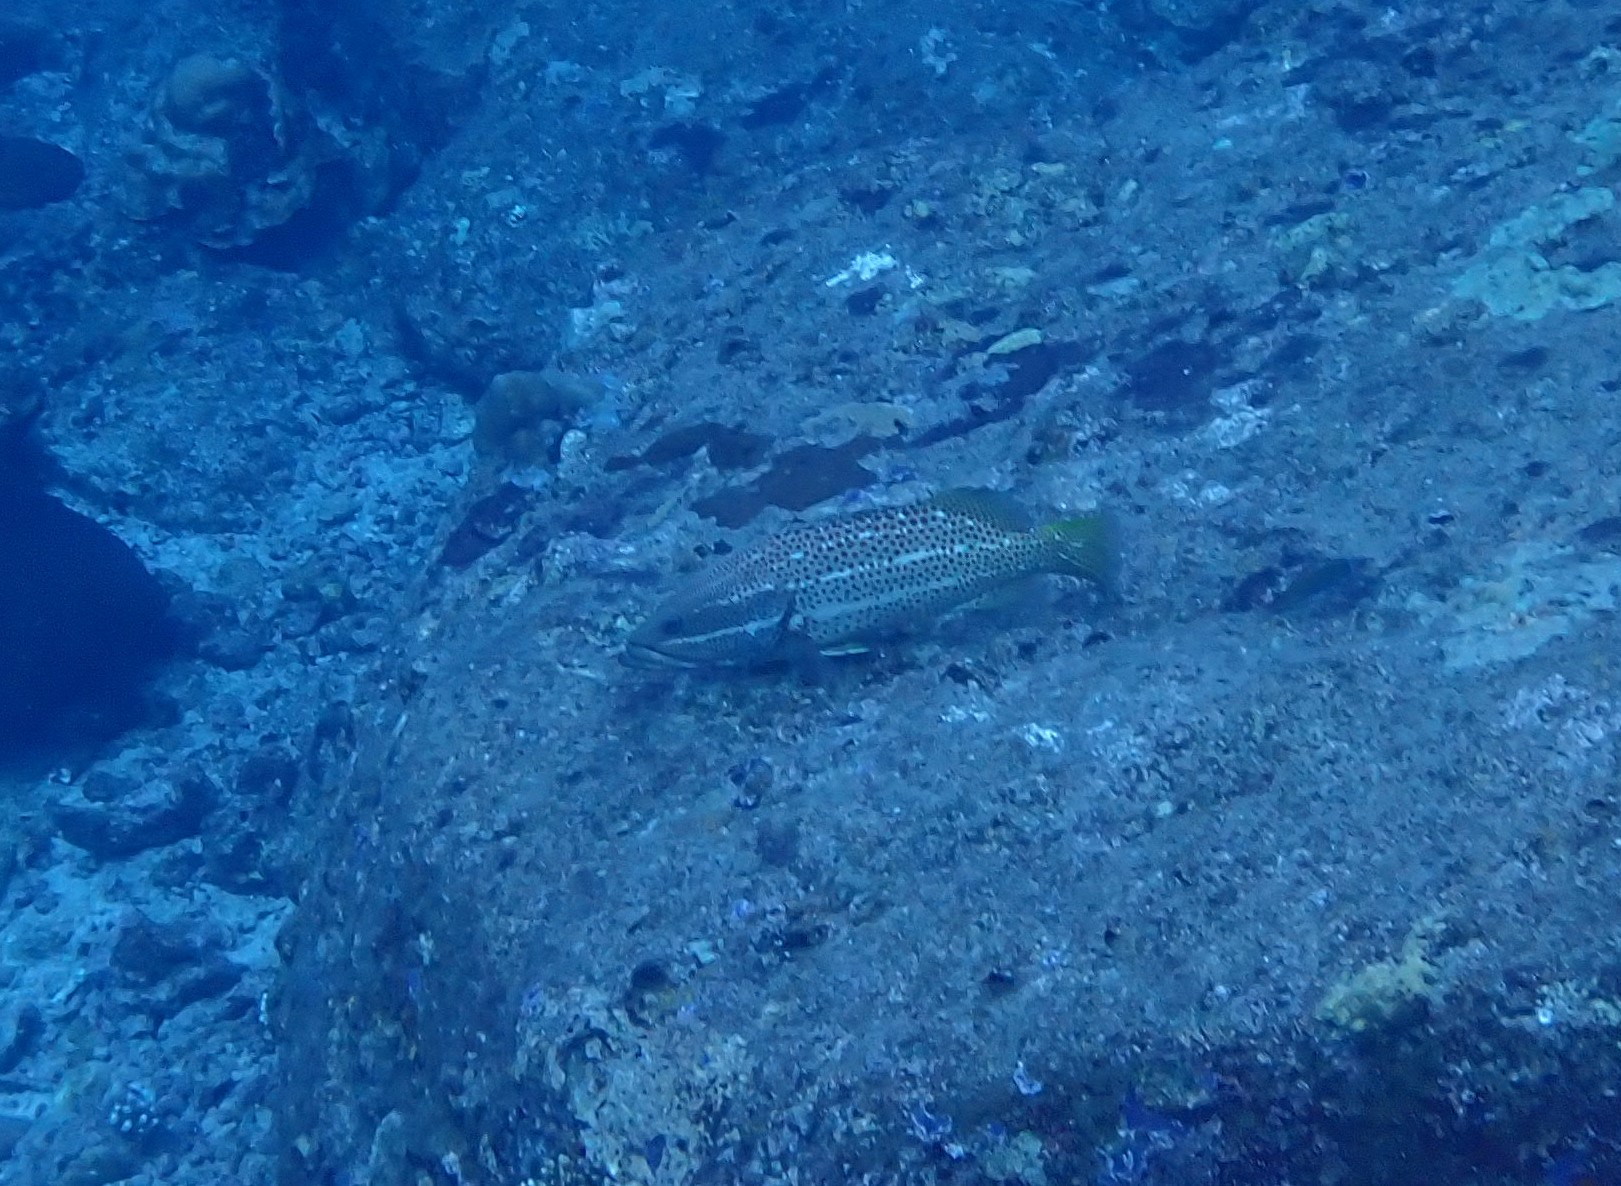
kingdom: Animalia
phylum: Chordata
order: Perciformes
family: Serranidae
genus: Anyperodon
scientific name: Anyperodon leucogrammicus
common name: Slender grouper
